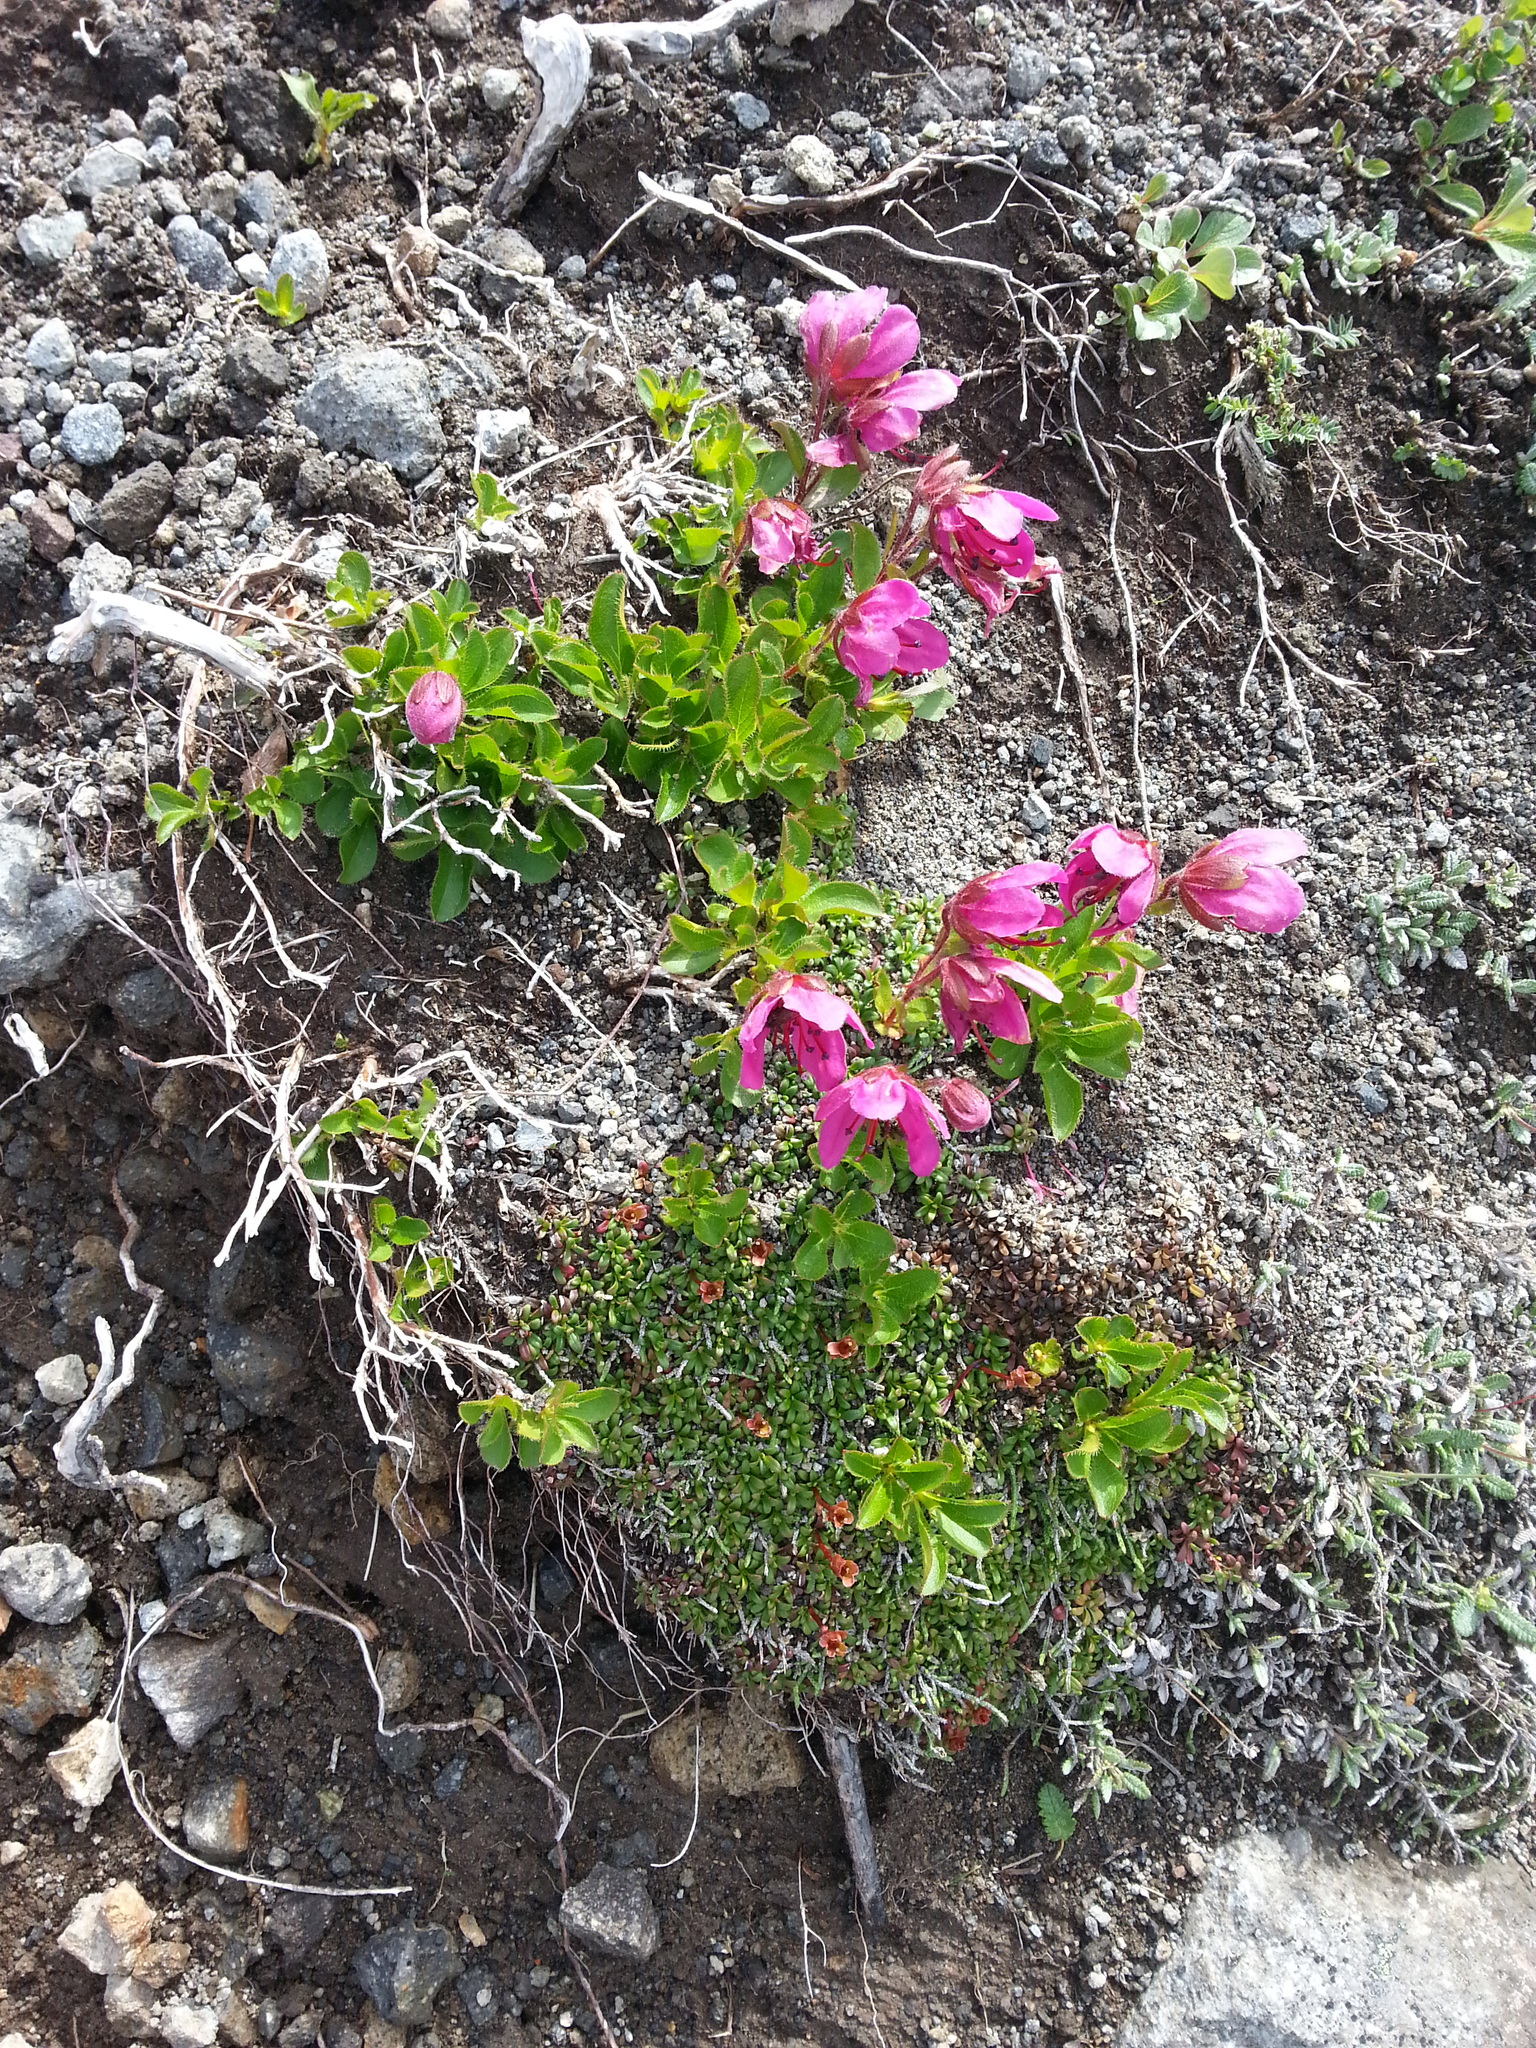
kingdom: Plantae
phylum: Tracheophyta
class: Magnoliopsida
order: Ericales
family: Ericaceae
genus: Rhododendron
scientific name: Rhododendron camtschaticum
